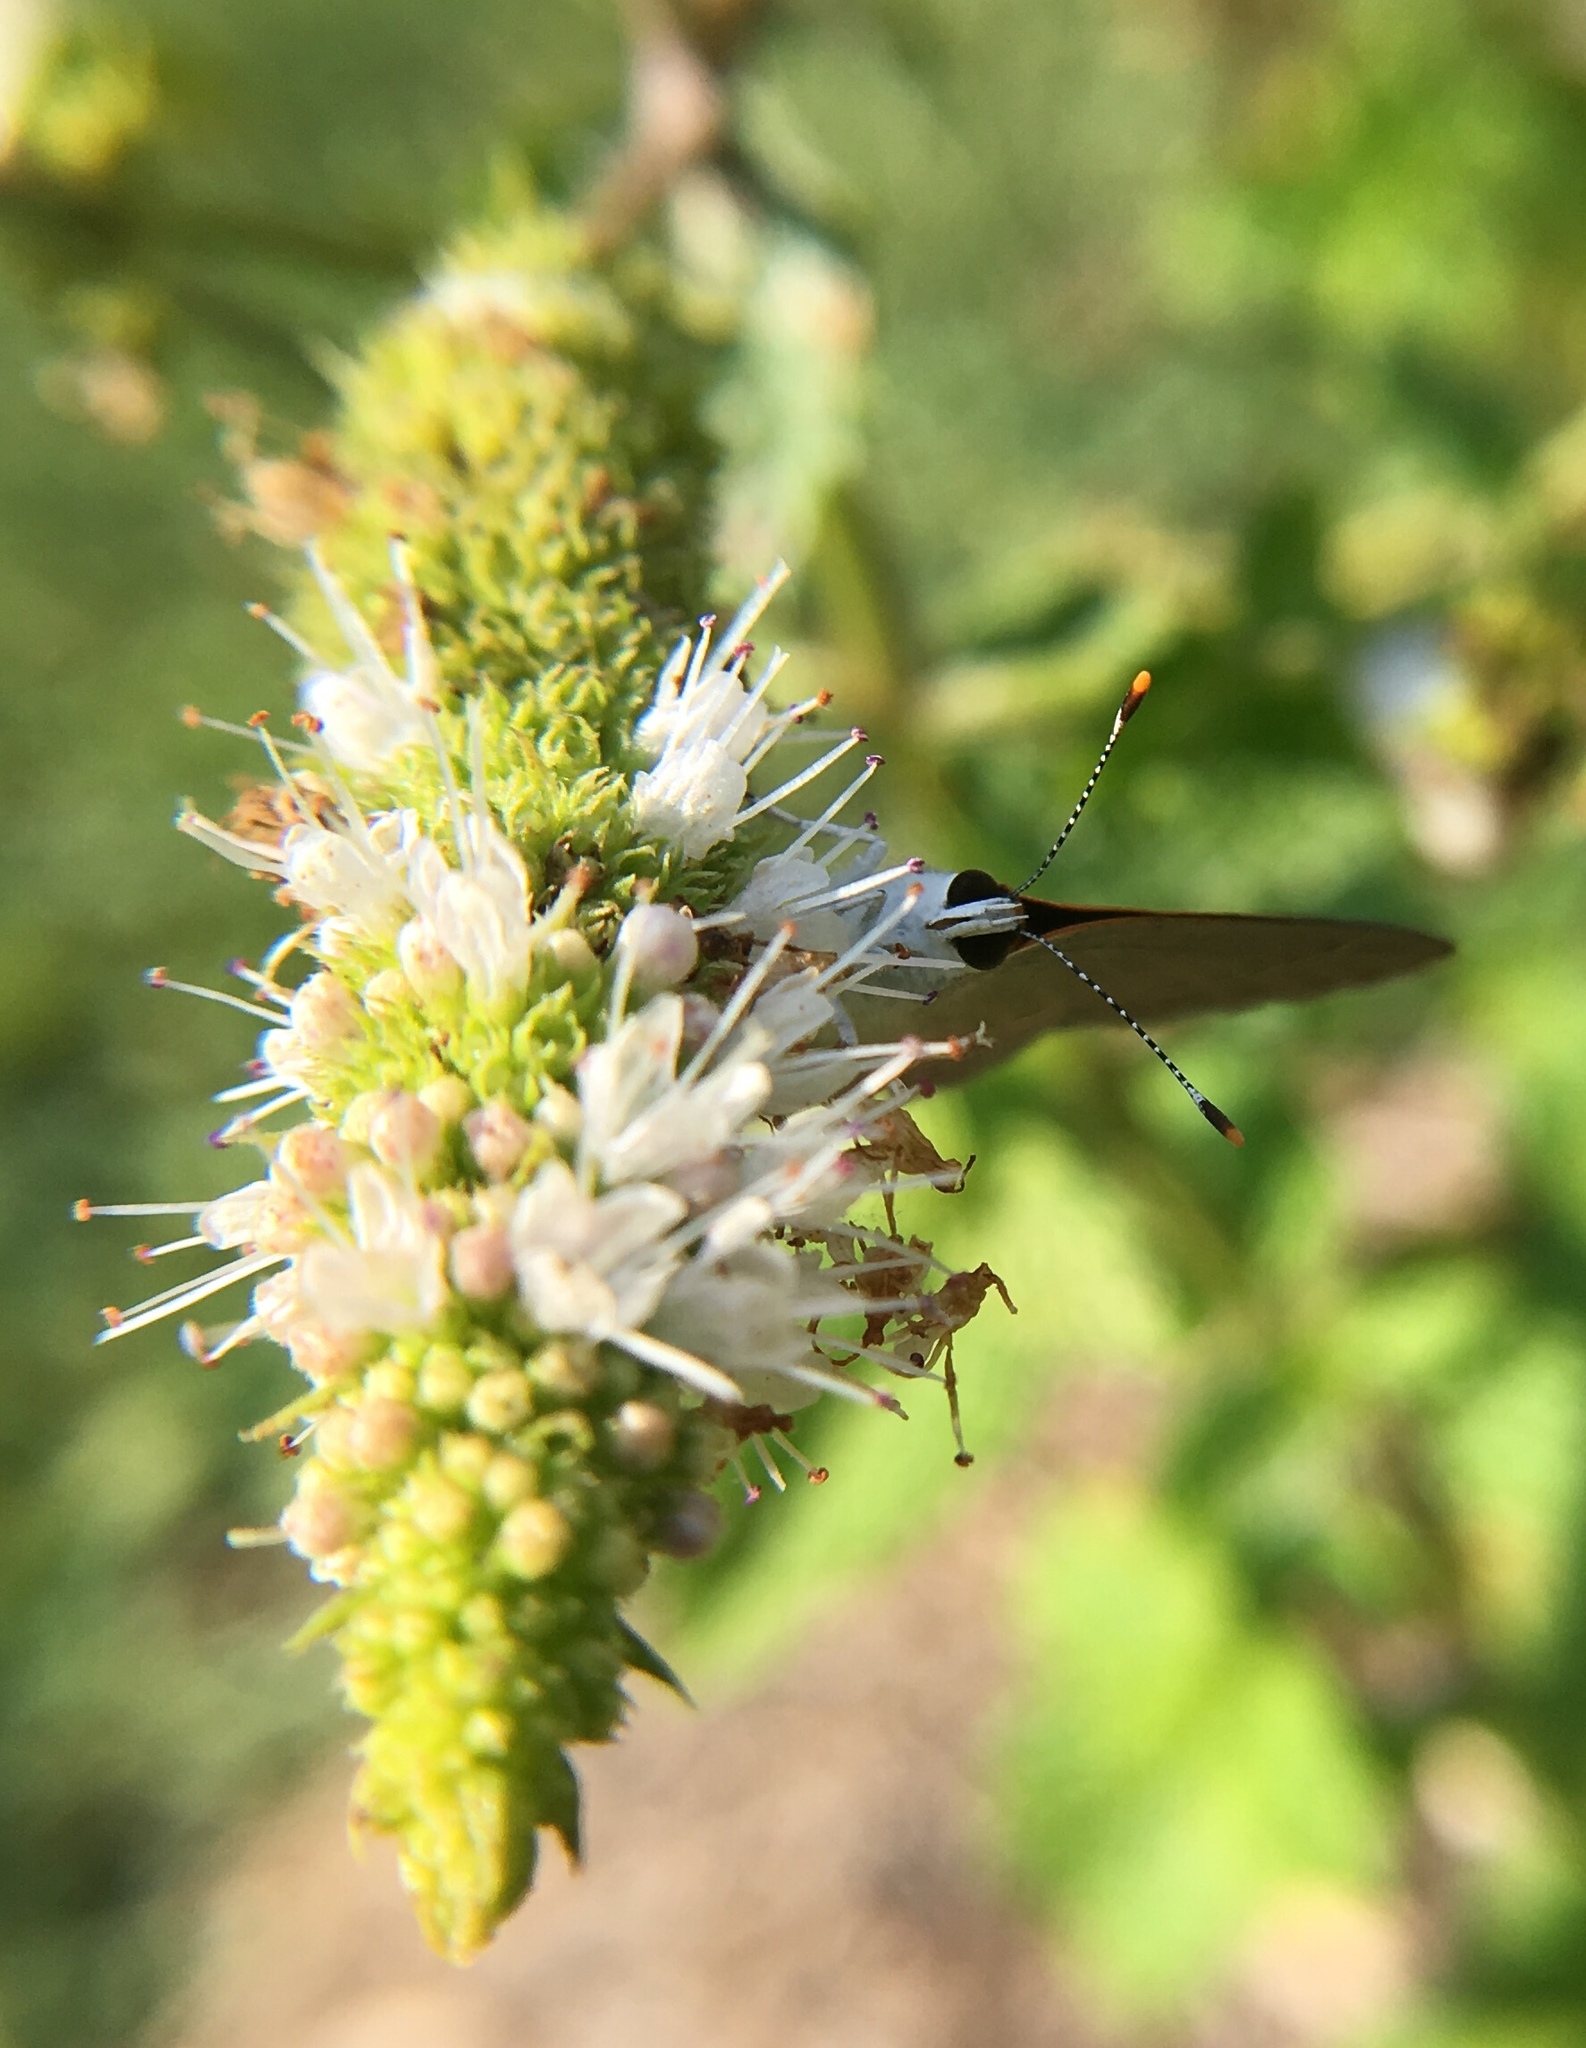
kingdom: Animalia
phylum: Arthropoda
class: Insecta
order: Lepidoptera
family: Lycaenidae
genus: Strymon
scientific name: Strymon melinus
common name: Gray hairstreak
